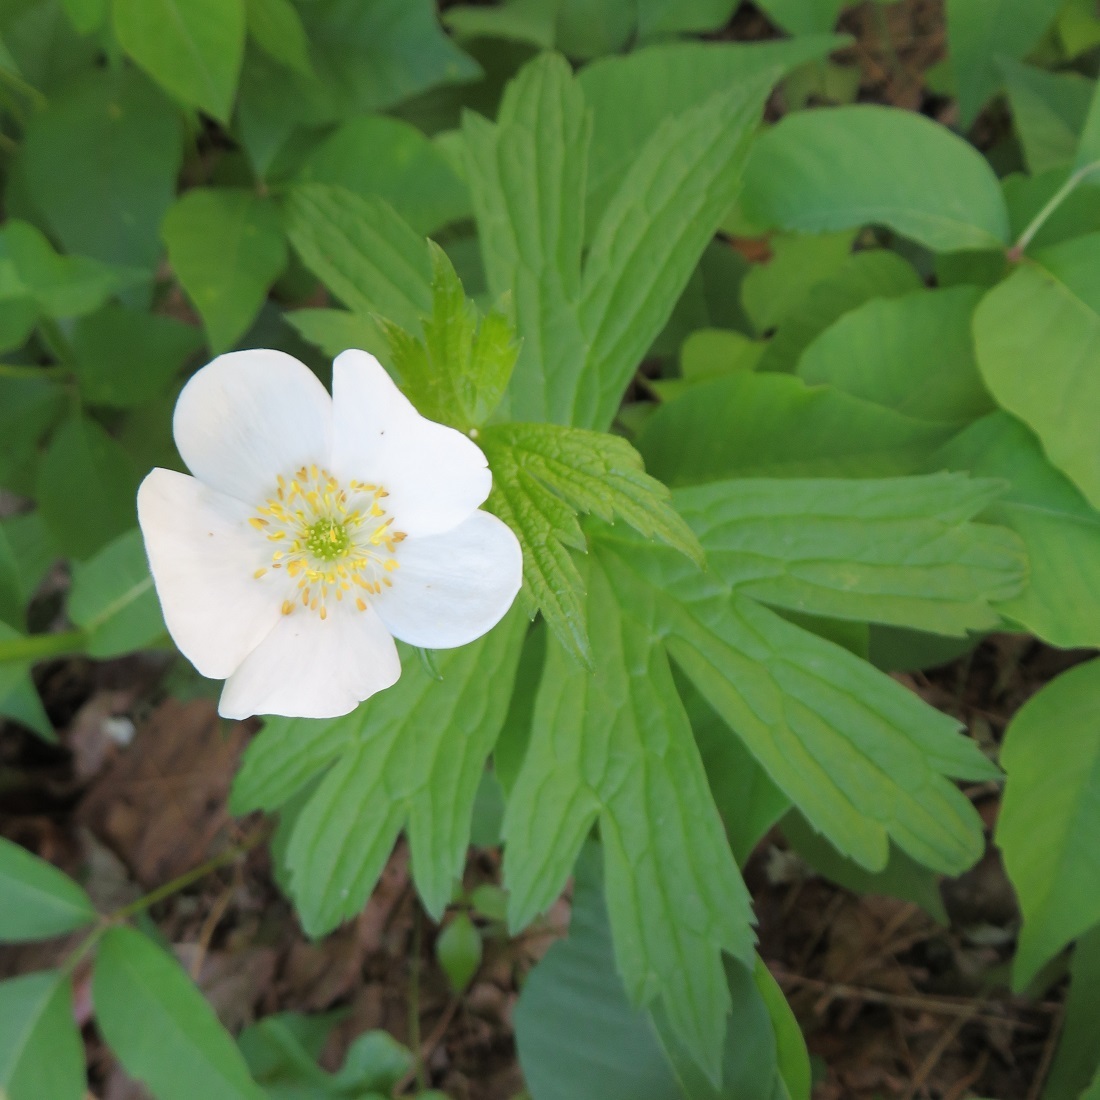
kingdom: Plantae
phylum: Tracheophyta
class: Magnoliopsida
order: Ranunculales
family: Ranunculaceae
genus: Anemonastrum
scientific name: Anemonastrum canadense
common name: Canada anemone
